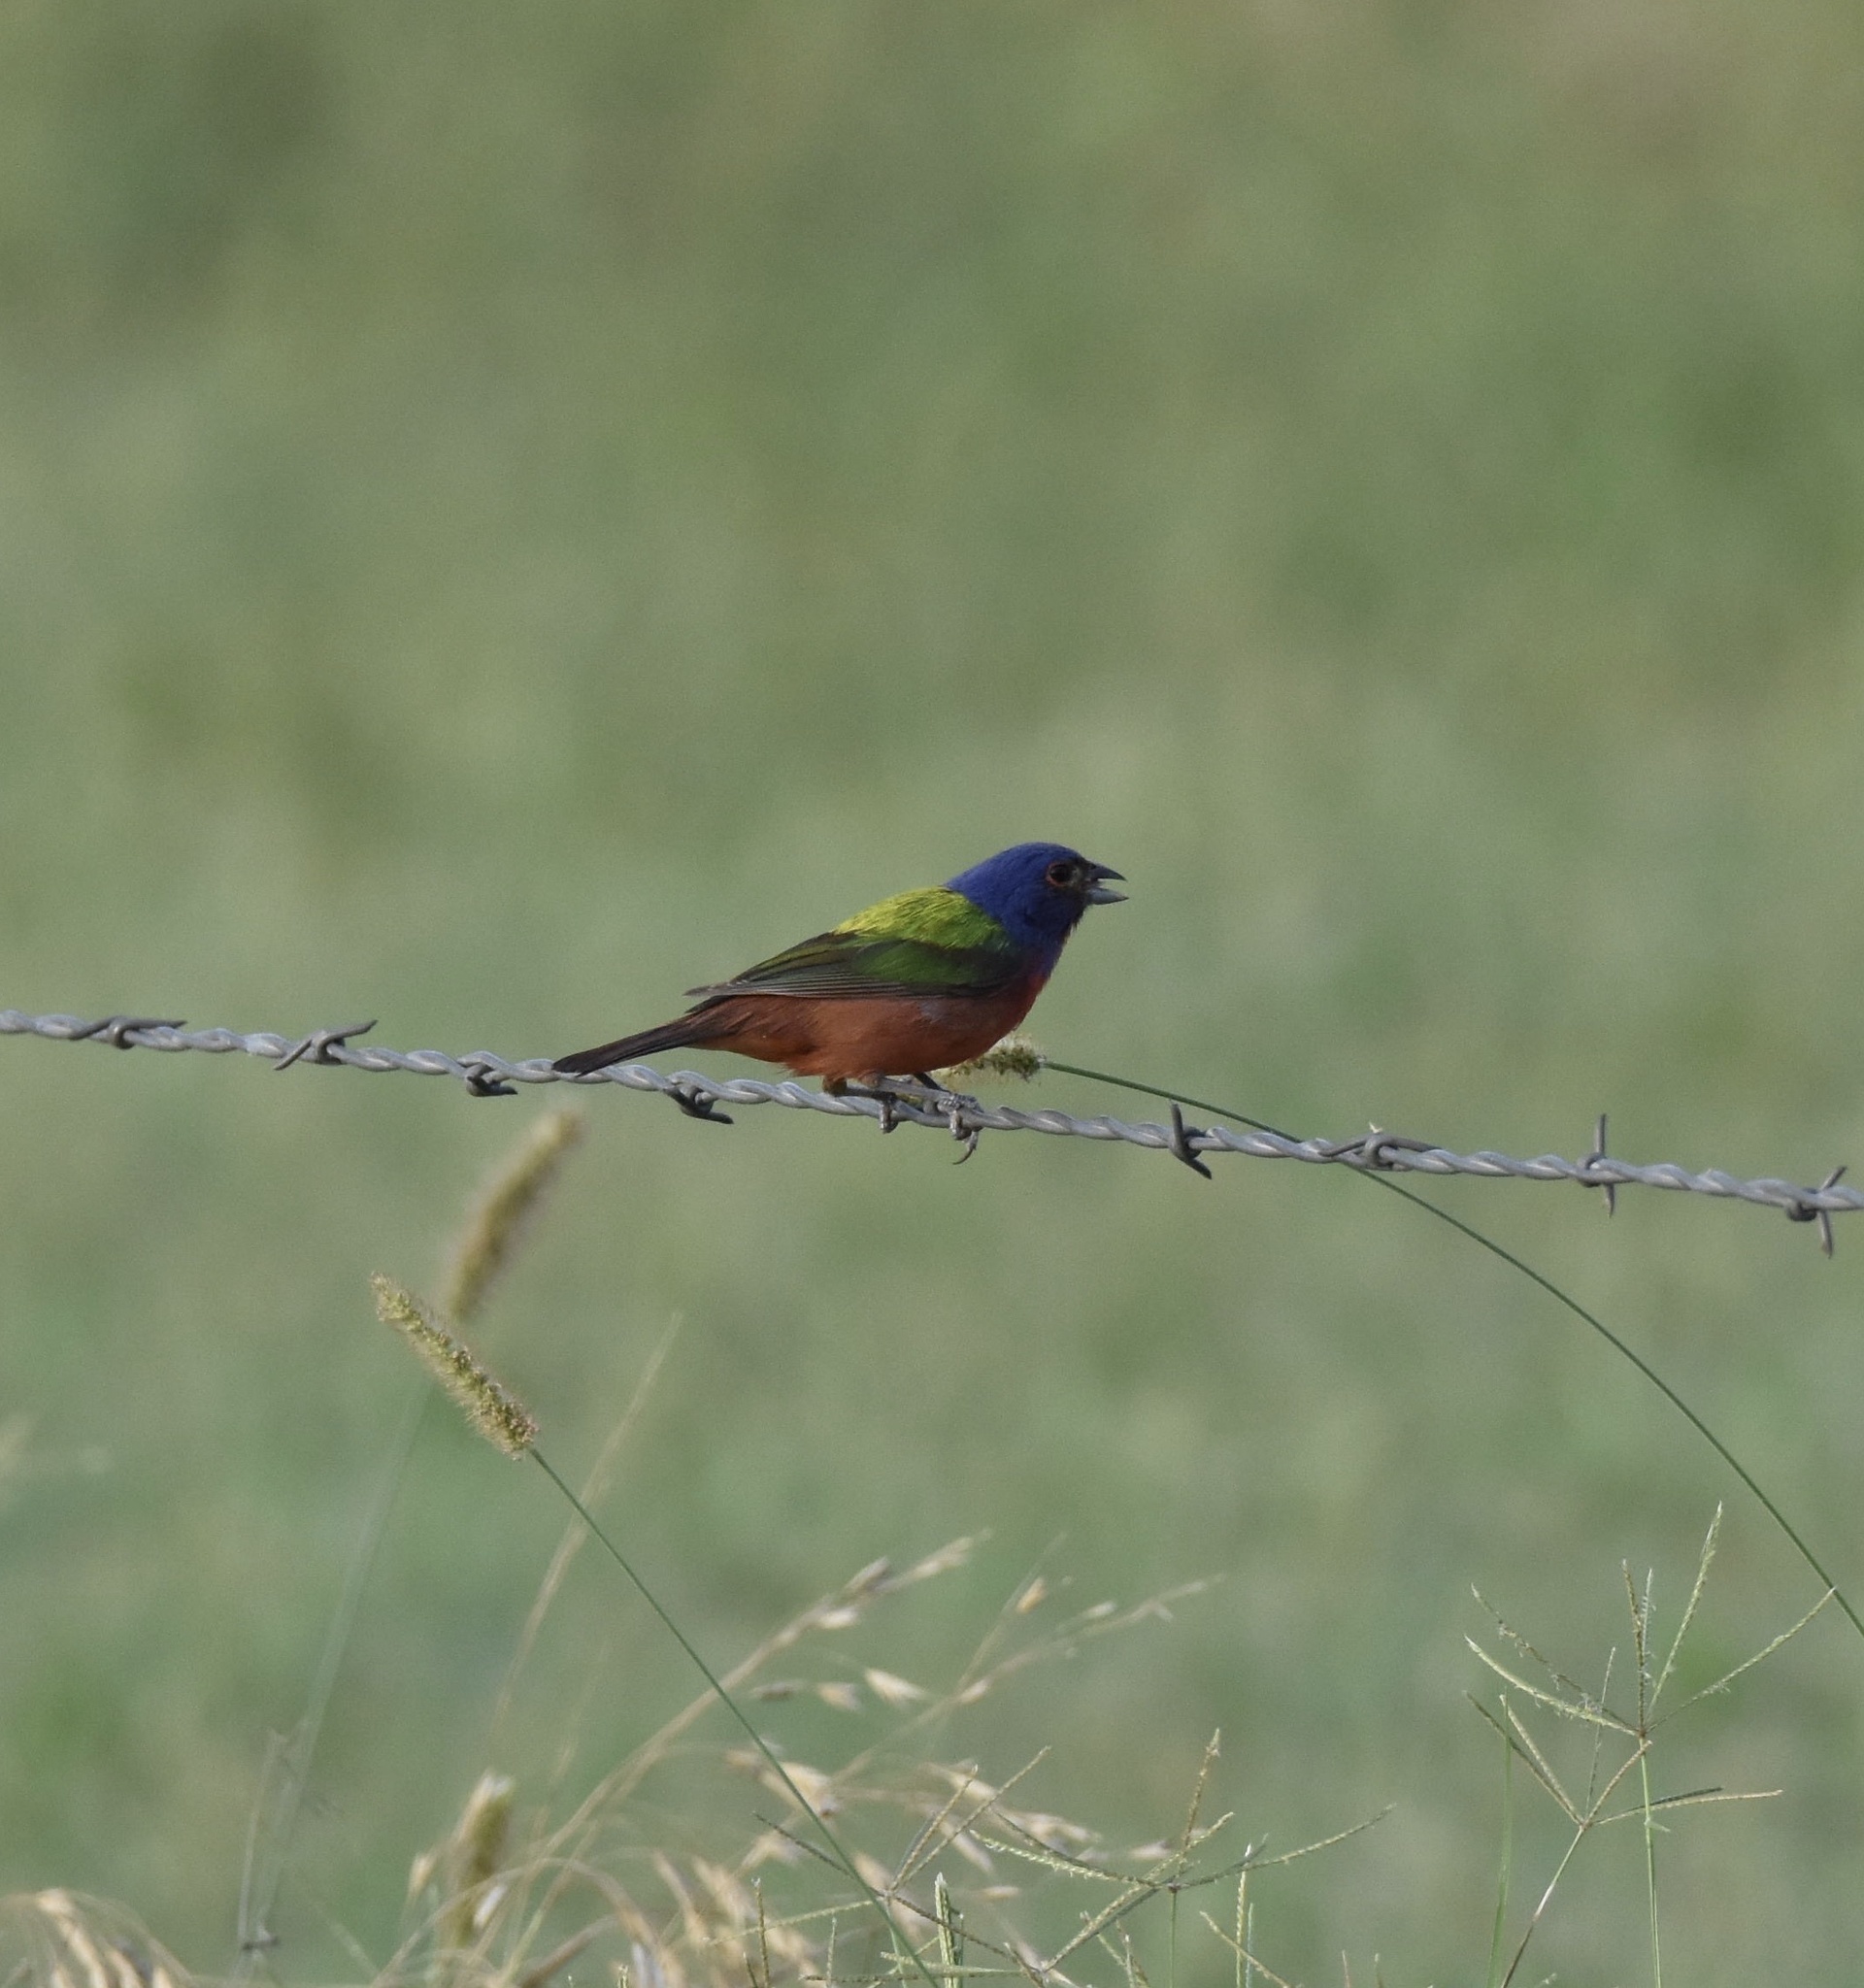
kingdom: Animalia
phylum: Chordata
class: Aves
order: Passeriformes
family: Cardinalidae
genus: Passerina
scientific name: Passerina ciris
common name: Painted bunting
